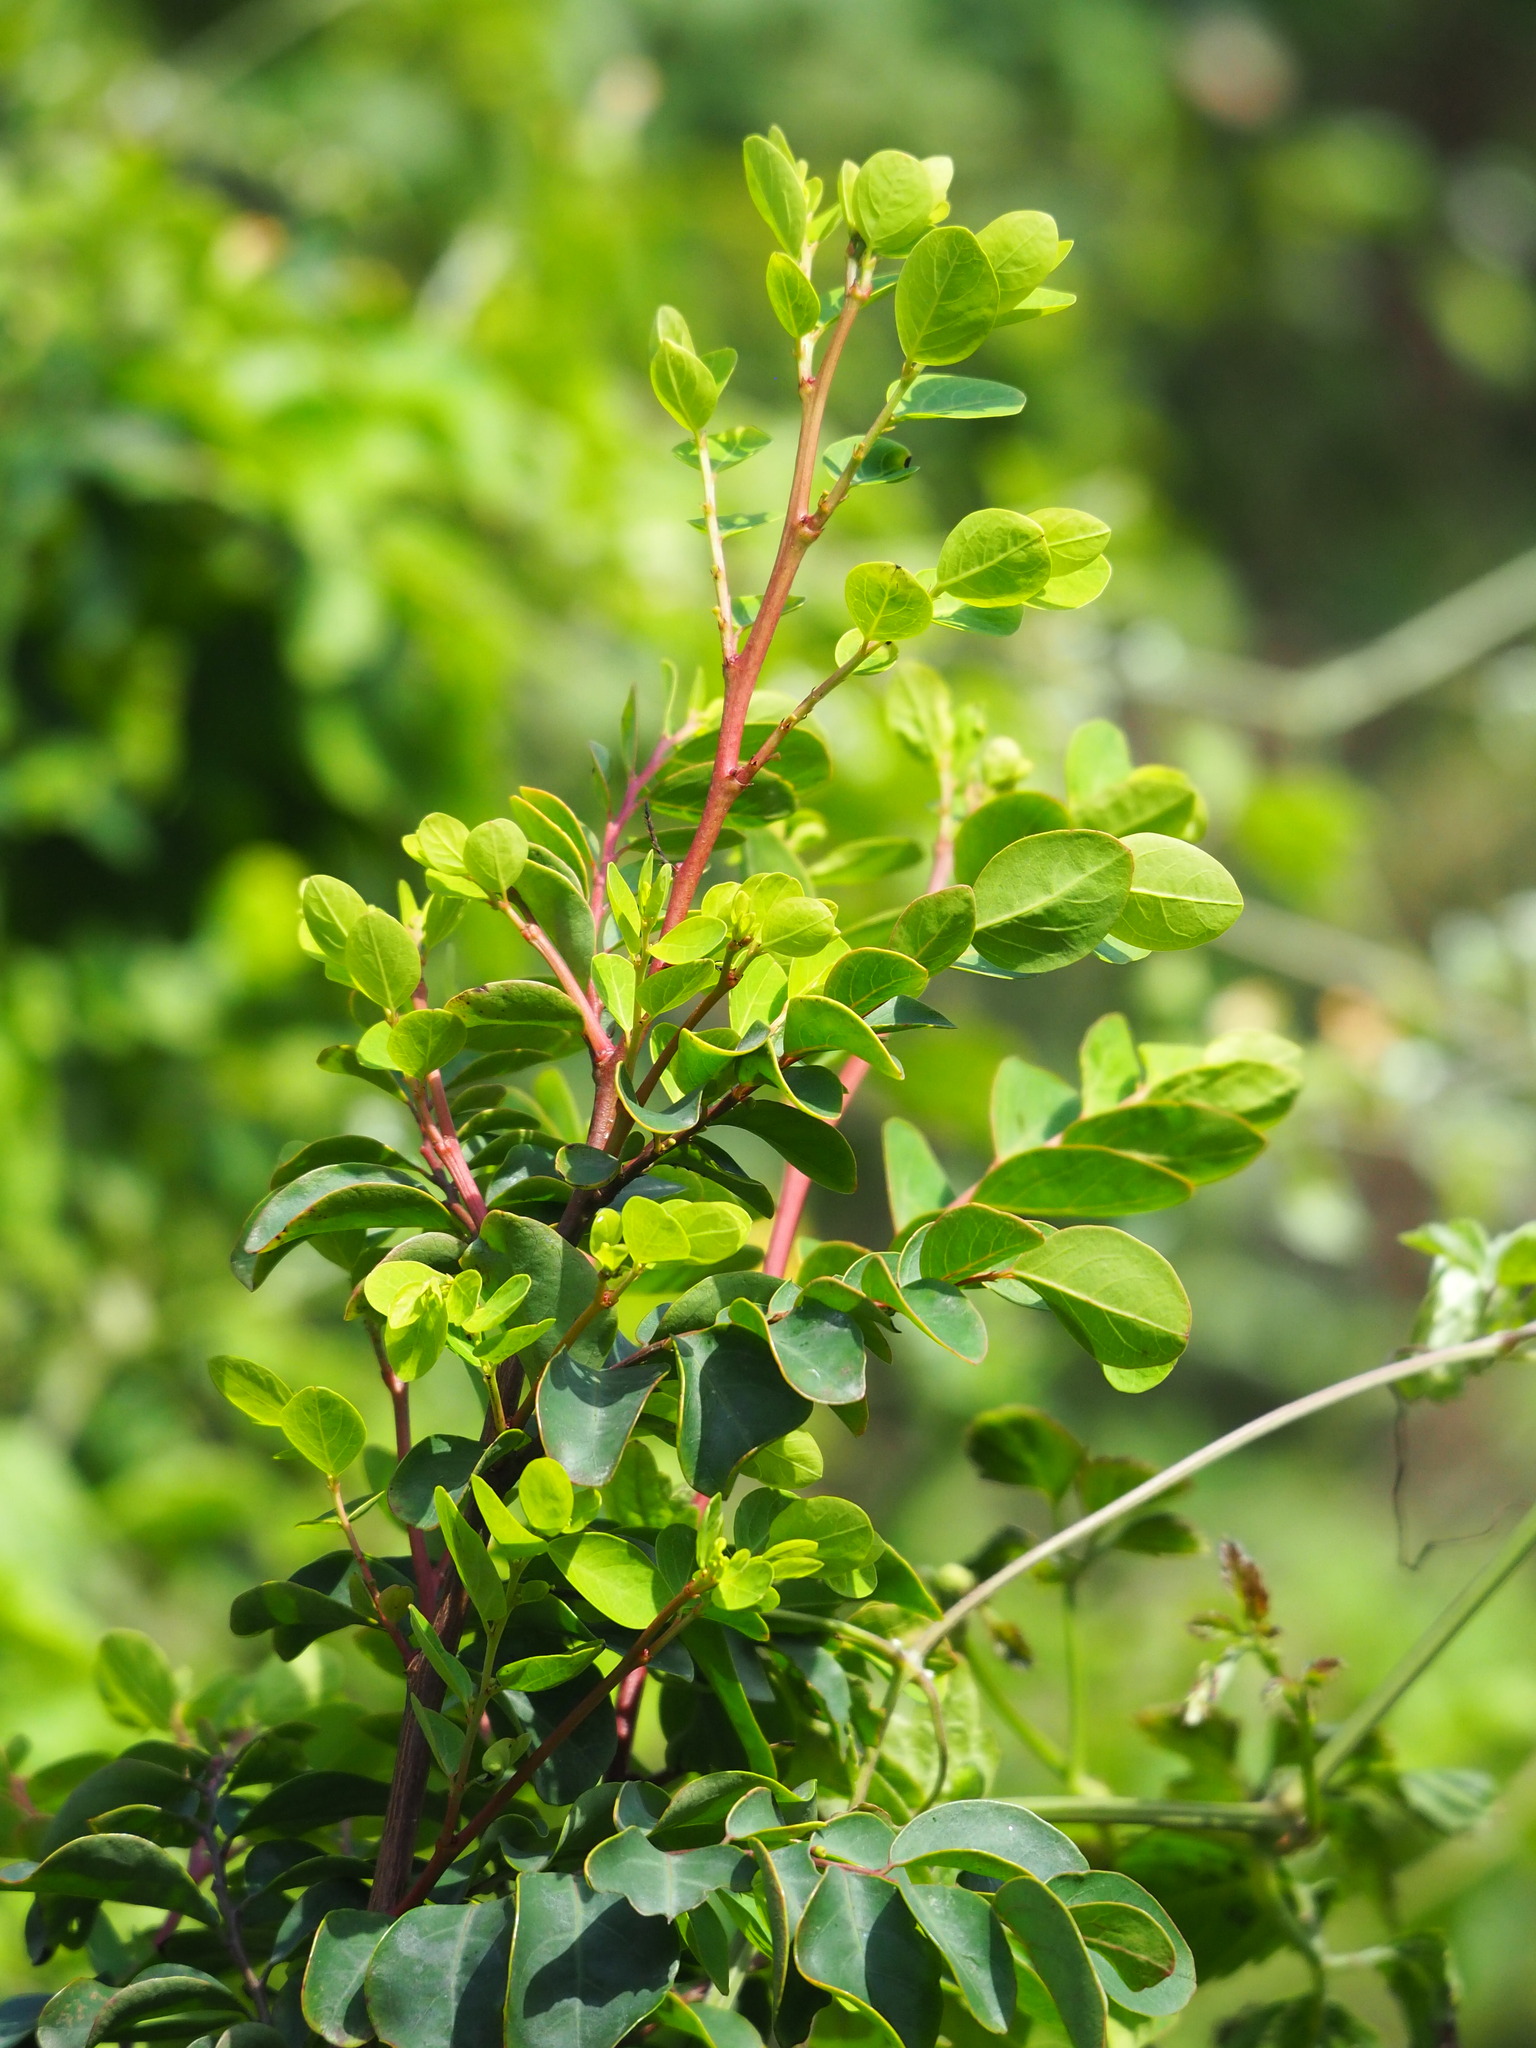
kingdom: Plantae
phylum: Tracheophyta
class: Magnoliopsida
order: Malpighiales
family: Phyllanthaceae
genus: Breynia
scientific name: Breynia vitis-idaea
